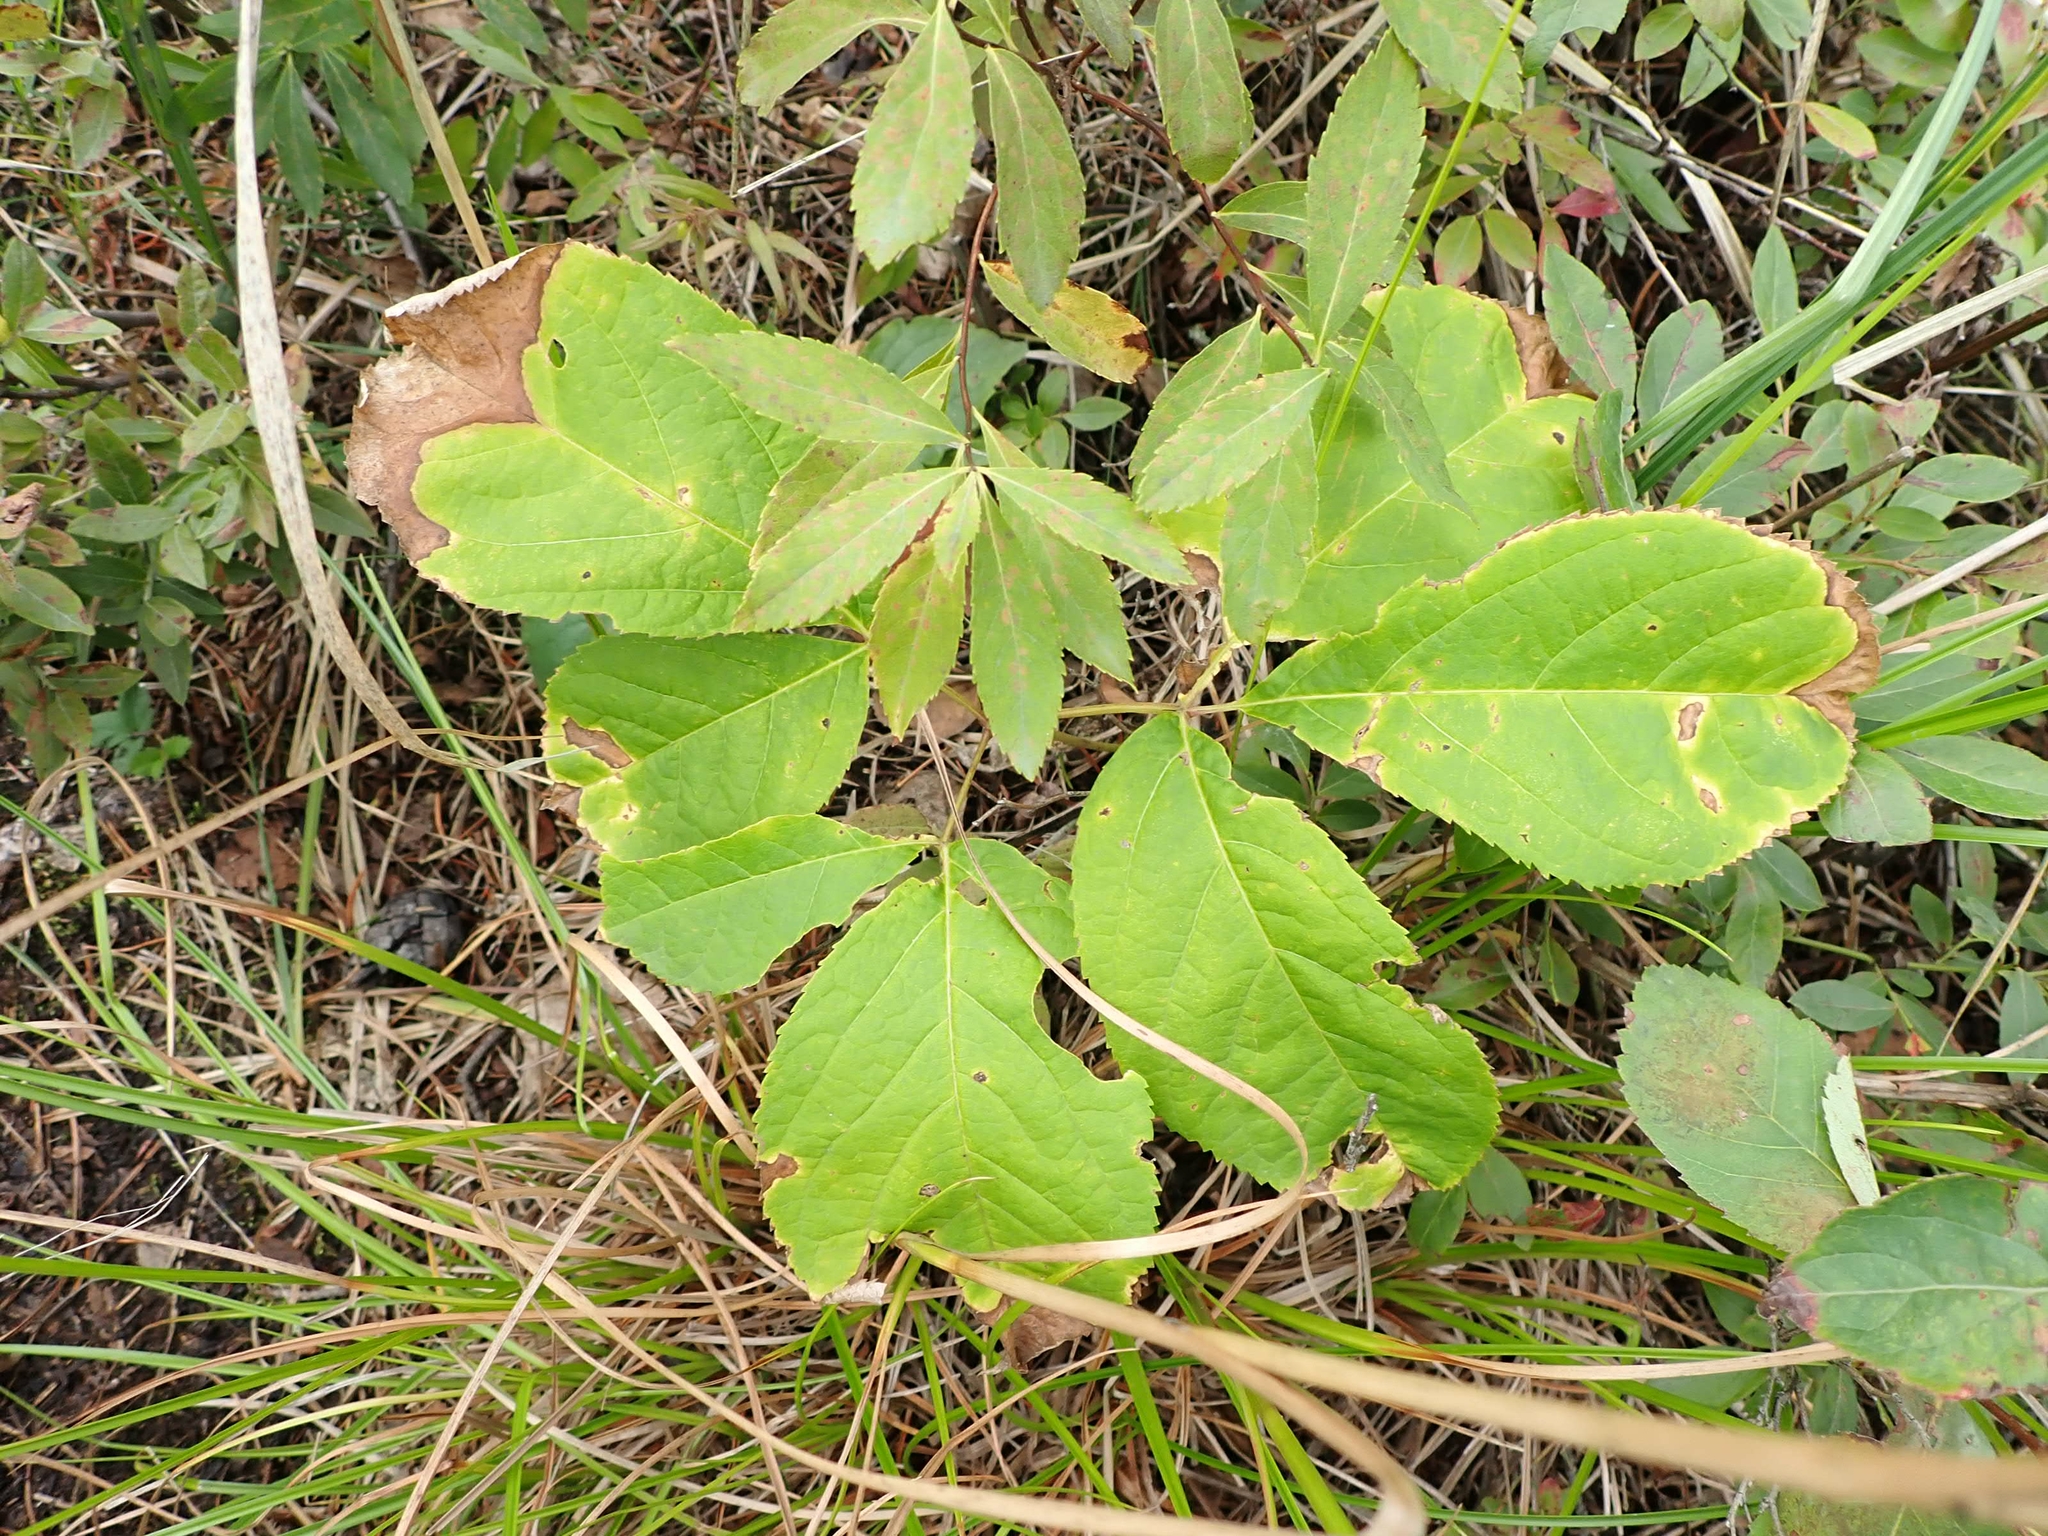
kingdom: Plantae
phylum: Tracheophyta
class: Magnoliopsida
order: Apiales
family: Araliaceae
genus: Aralia
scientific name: Aralia nudicaulis
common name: Wild sarsaparilla
